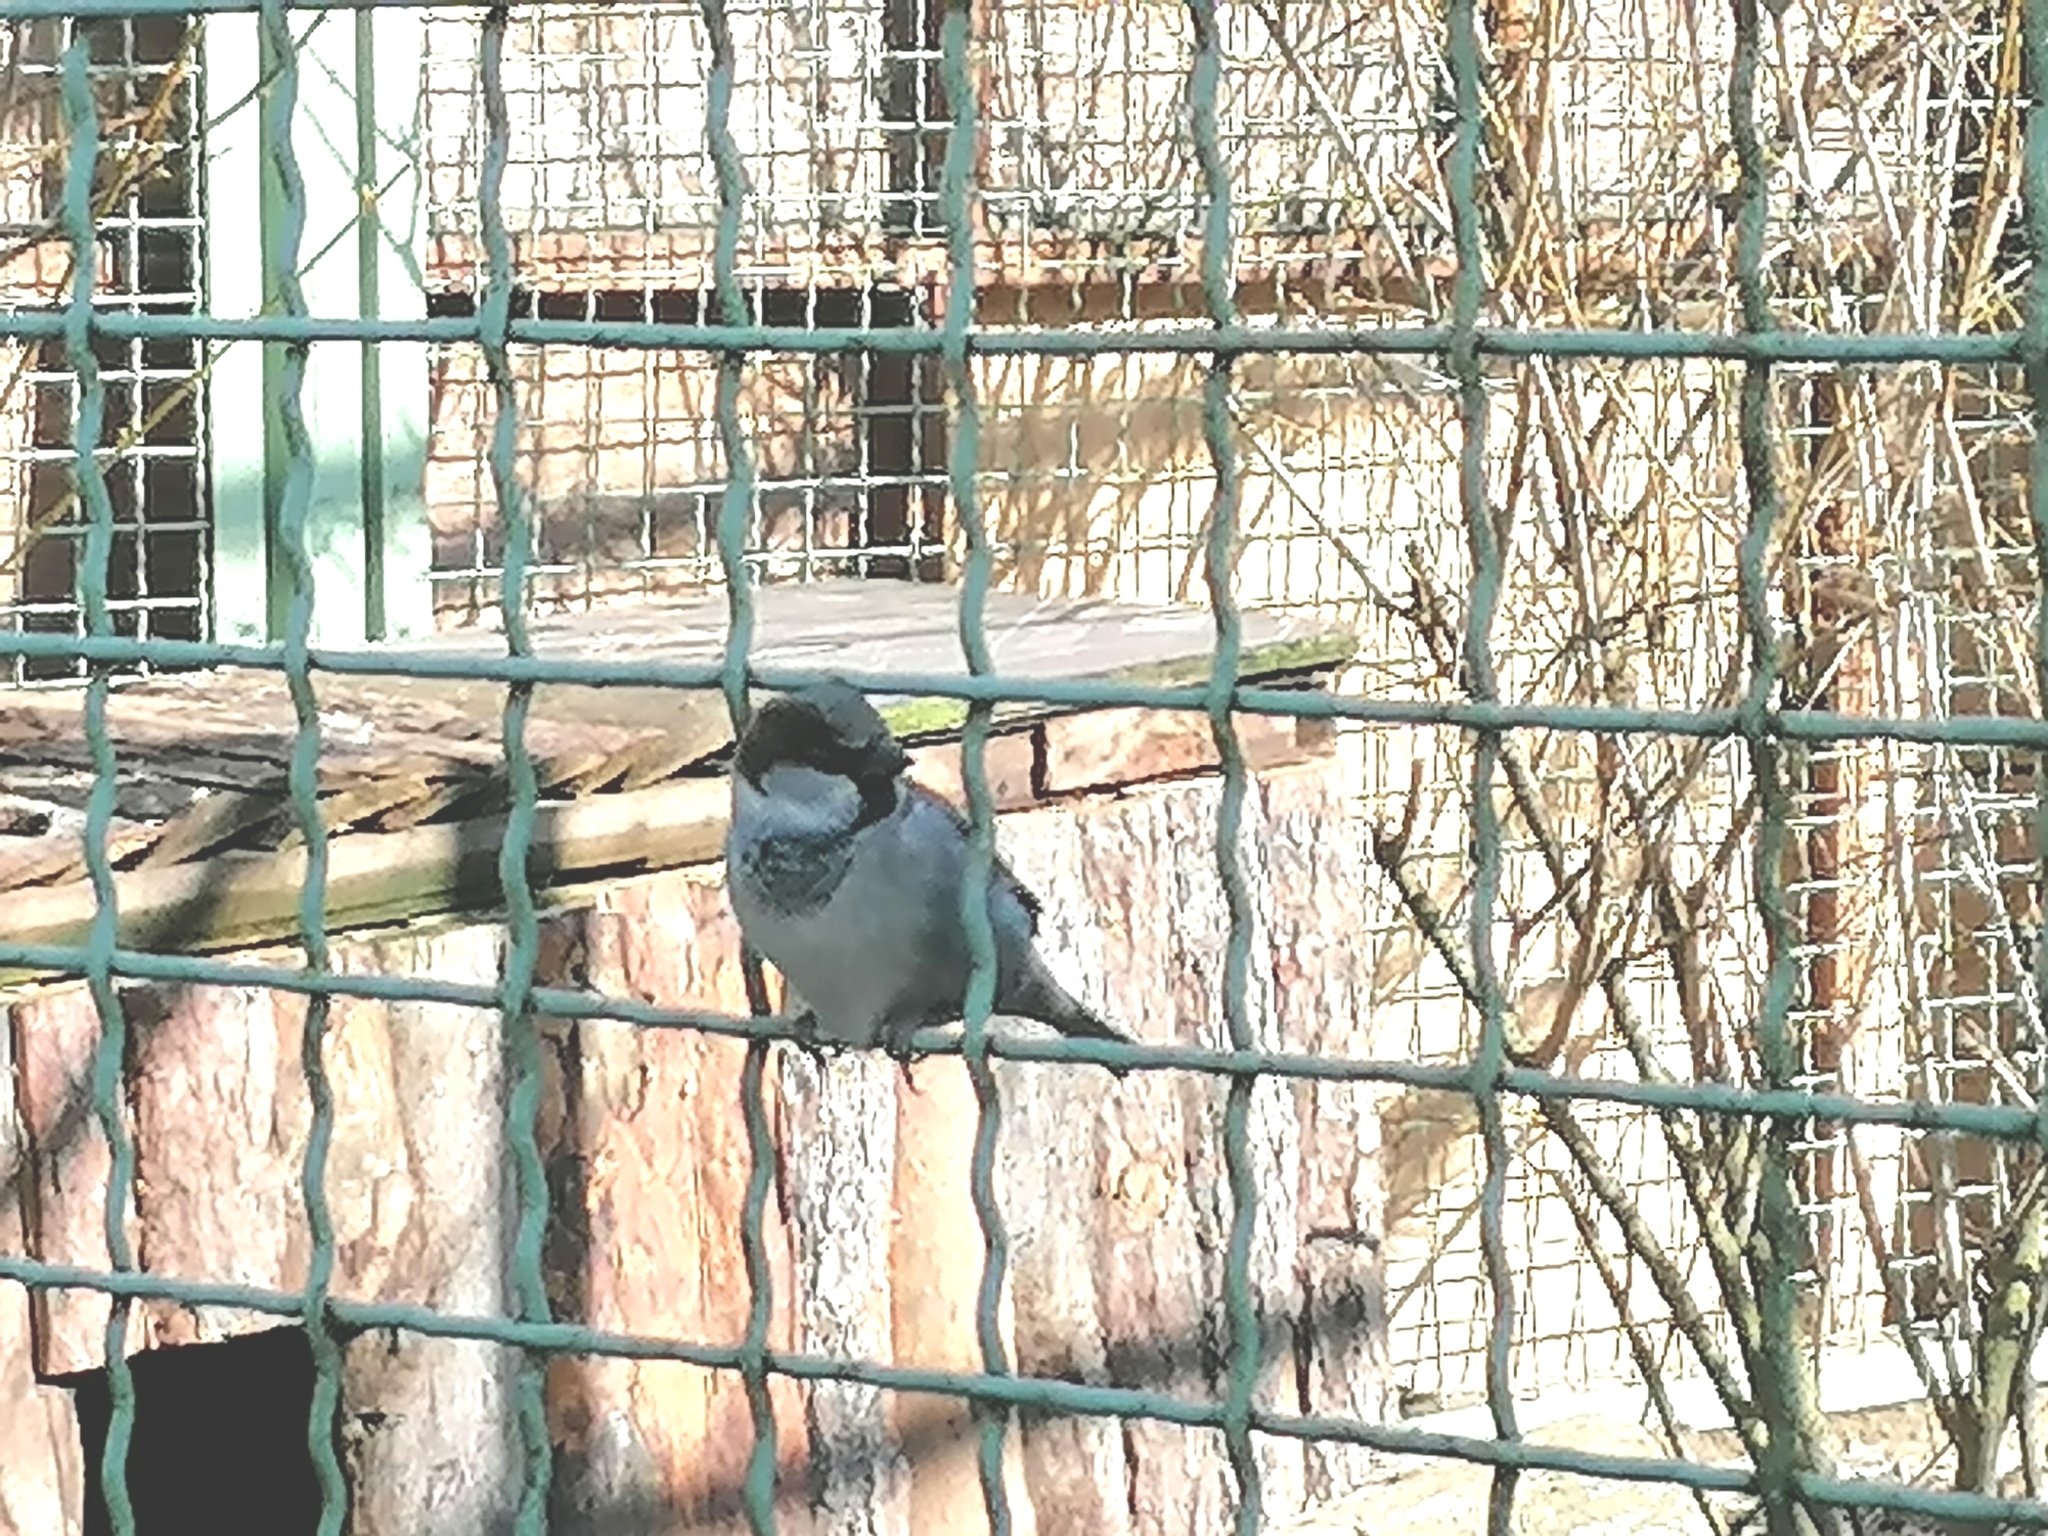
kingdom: Animalia
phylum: Chordata
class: Aves
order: Passeriformes
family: Passeridae
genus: Passer
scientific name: Passer domesticus
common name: House sparrow
